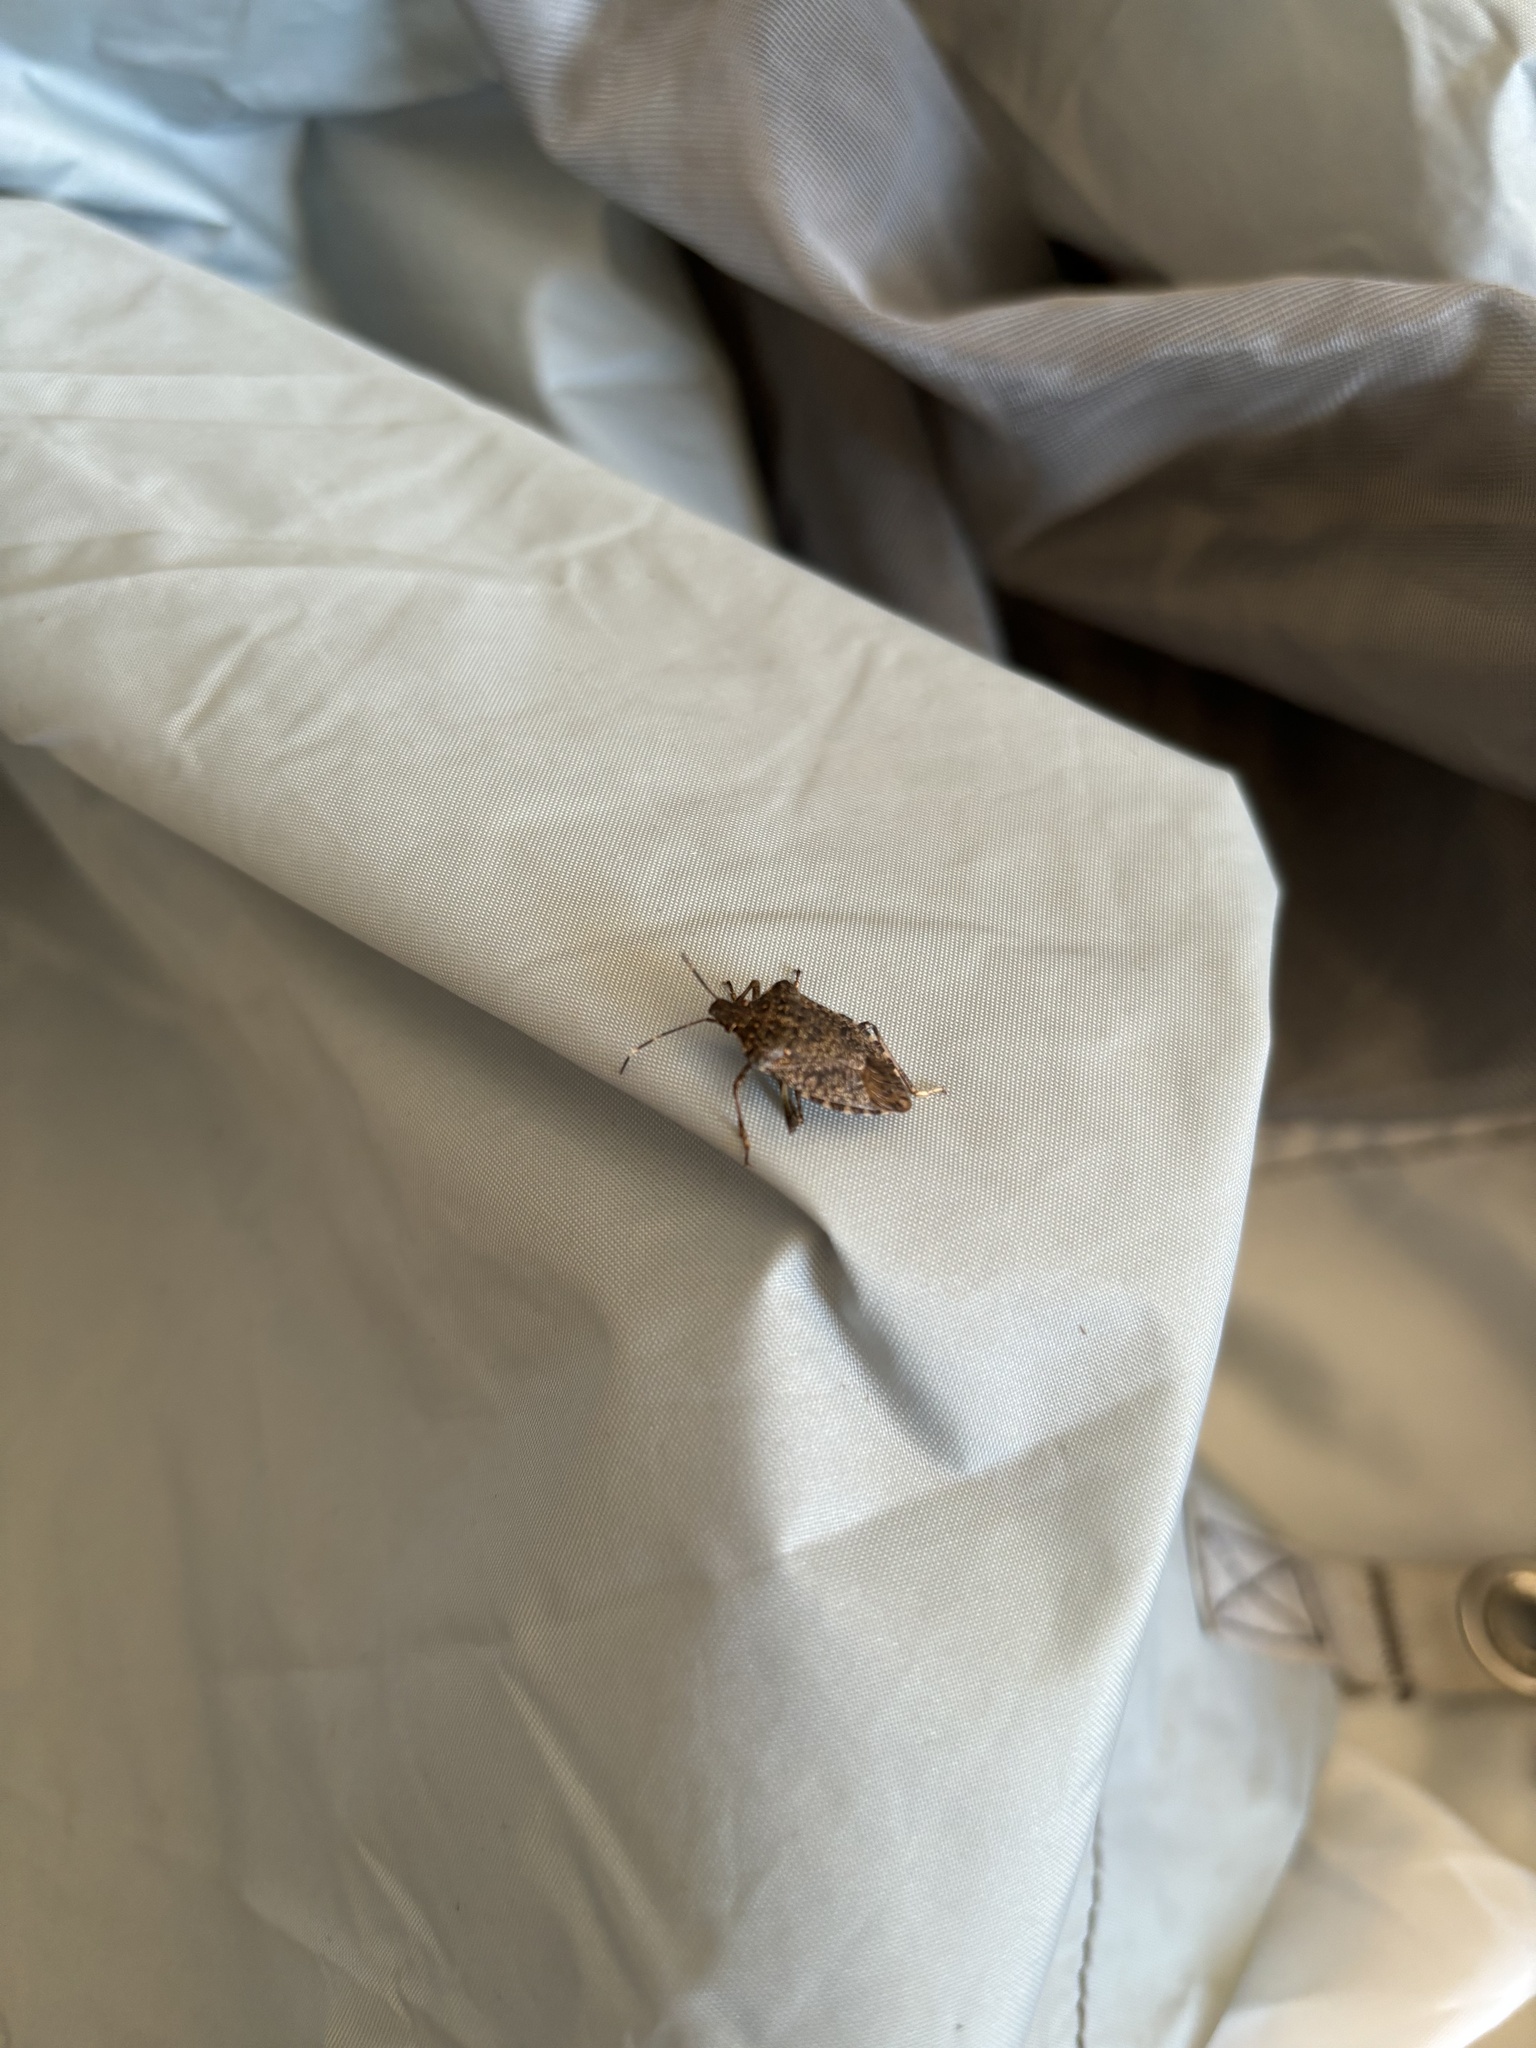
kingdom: Animalia
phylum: Arthropoda
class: Insecta
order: Hemiptera
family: Pentatomidae
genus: Halyomorpha
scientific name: Halyomorpha halys
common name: Brown marmorated stink bug
